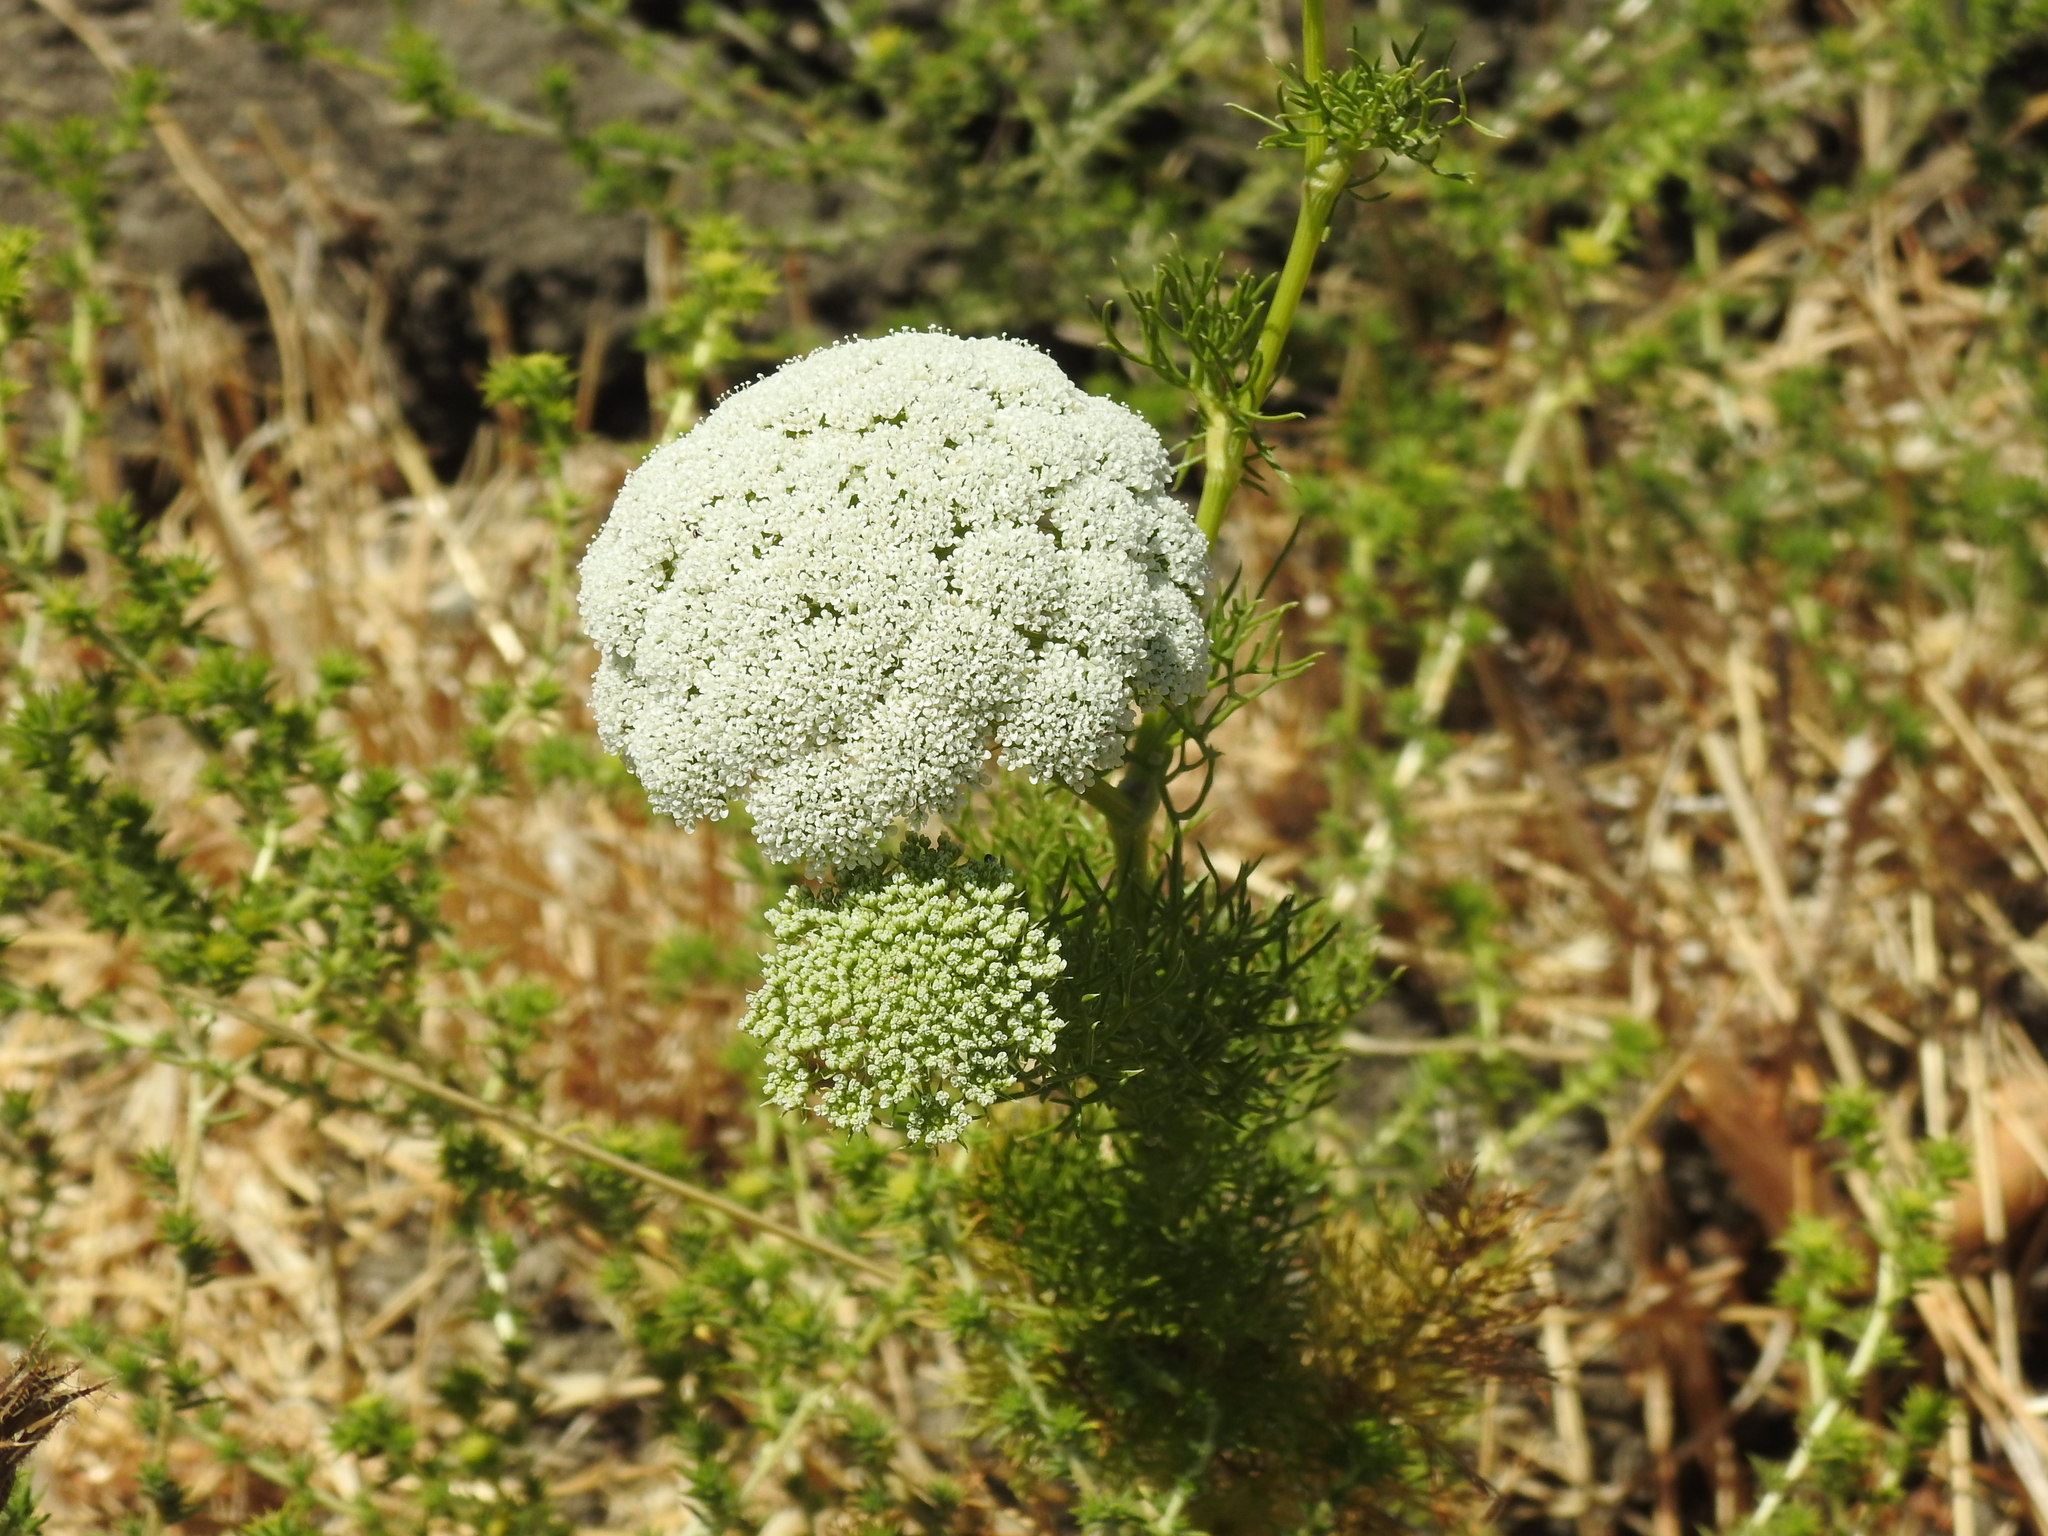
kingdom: Plantae
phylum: Tracheophyta
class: Magnoliopsida
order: Apiales
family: Apiaceae
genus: Visnaga
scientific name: Visnaga daucoides
